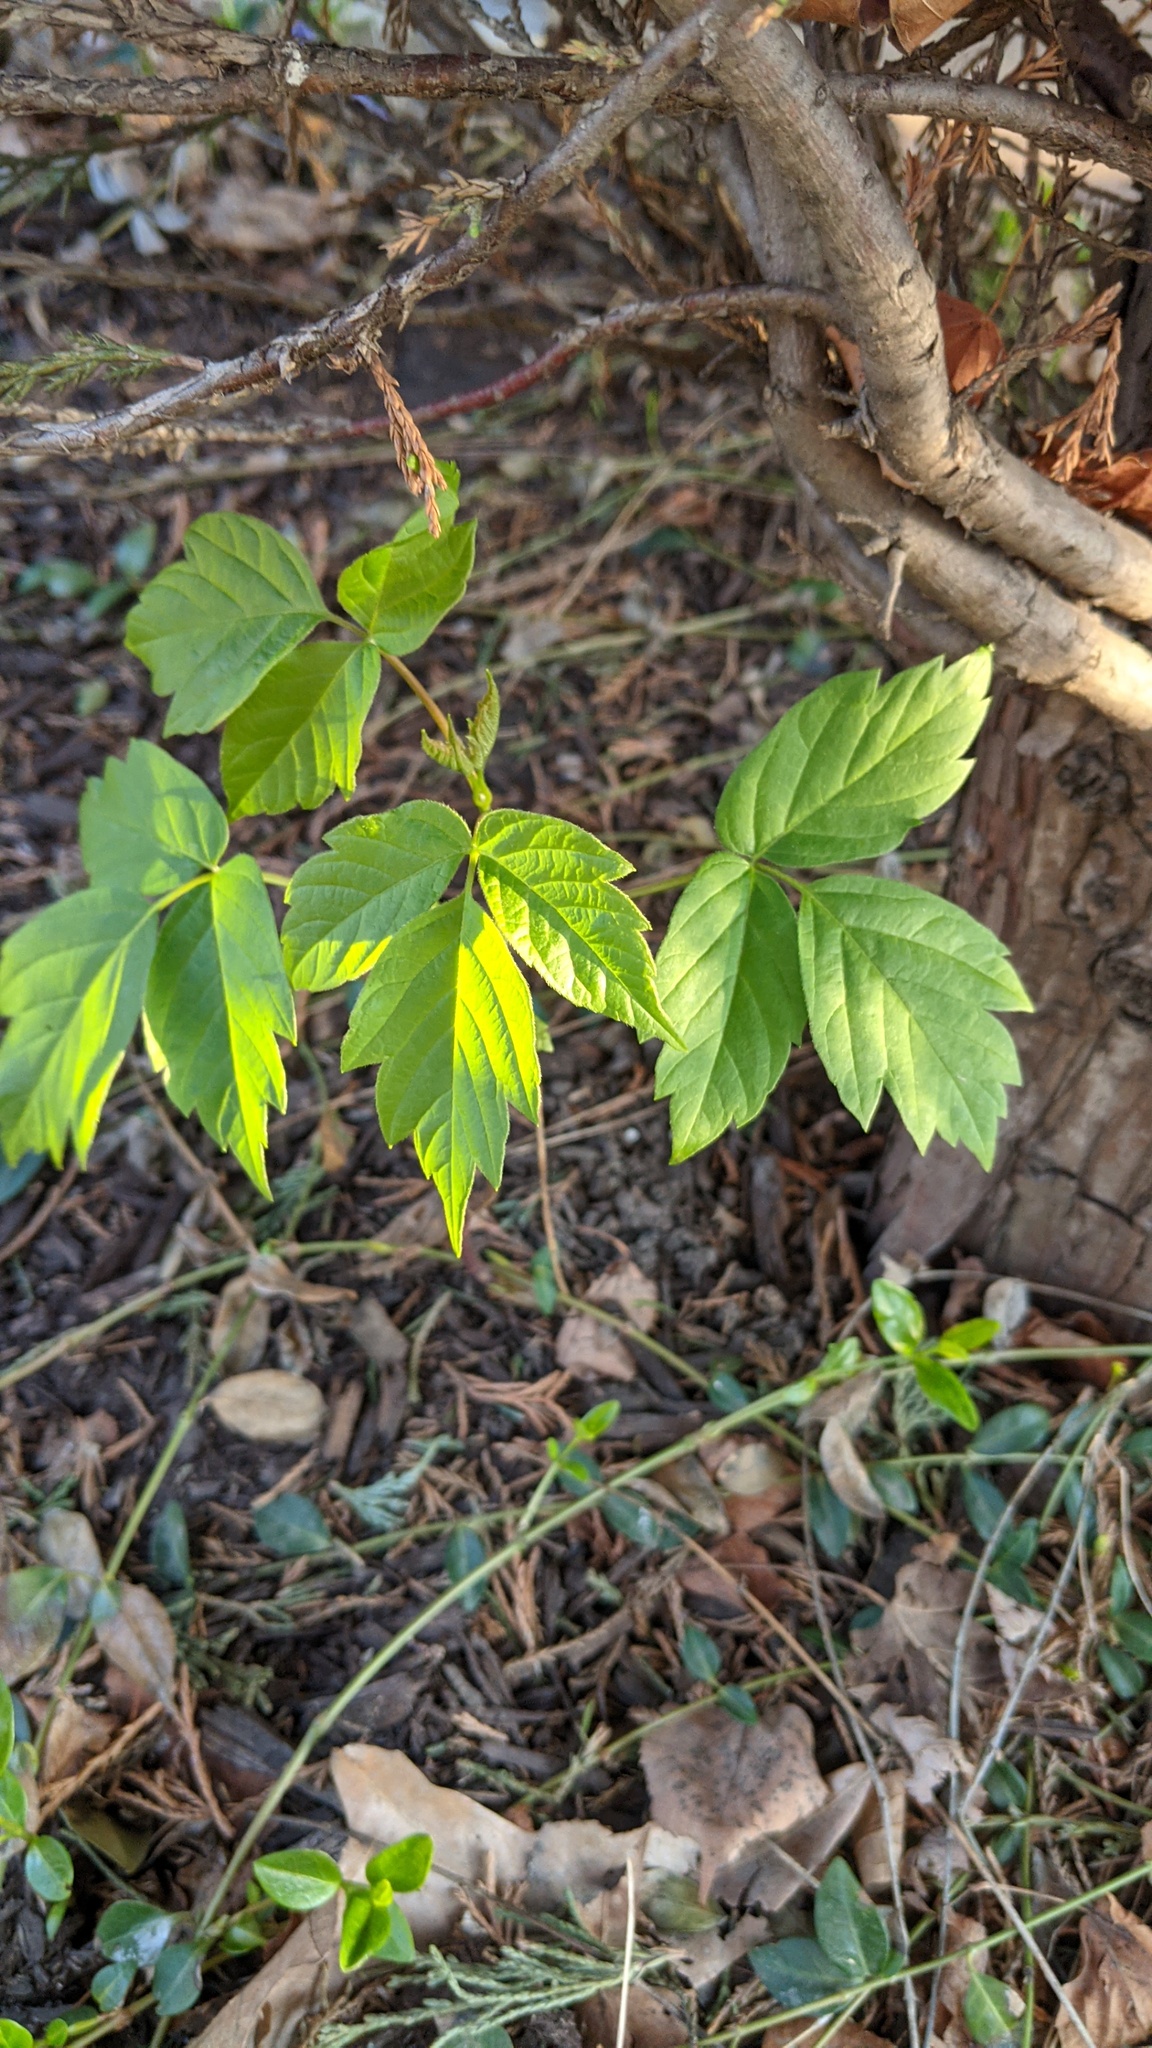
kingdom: Plantae
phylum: Tracheophyta
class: Magnoliopsida
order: Sapindales
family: Sapindaceae
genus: Acer
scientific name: Acer negundo
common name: Ashleaf maple
